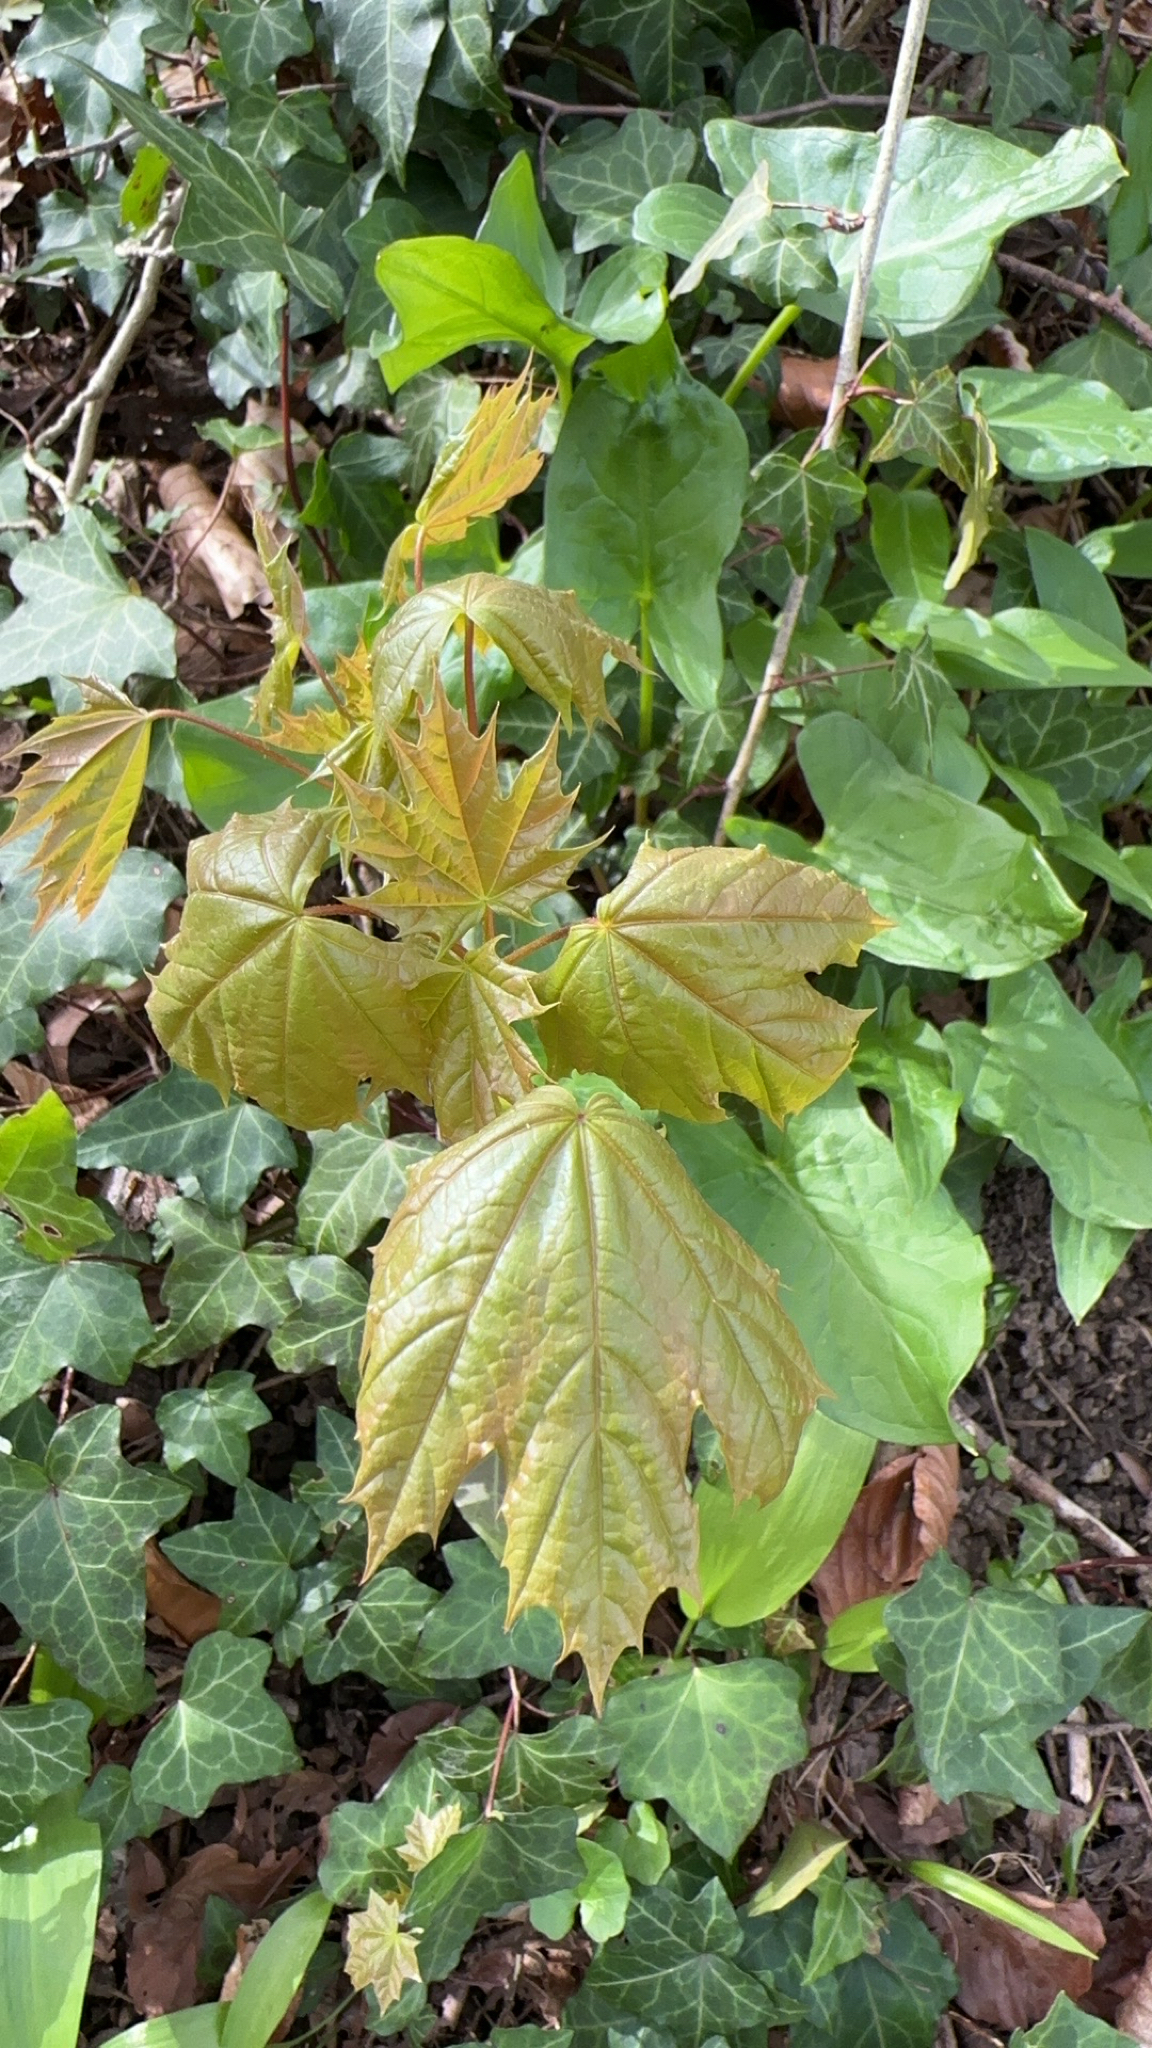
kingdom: Plantae
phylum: Tracheophyta
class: Magnoliopsida
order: Sapindales
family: Sapindaceae
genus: Acer
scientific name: Acer platanoides
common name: Norway maple
